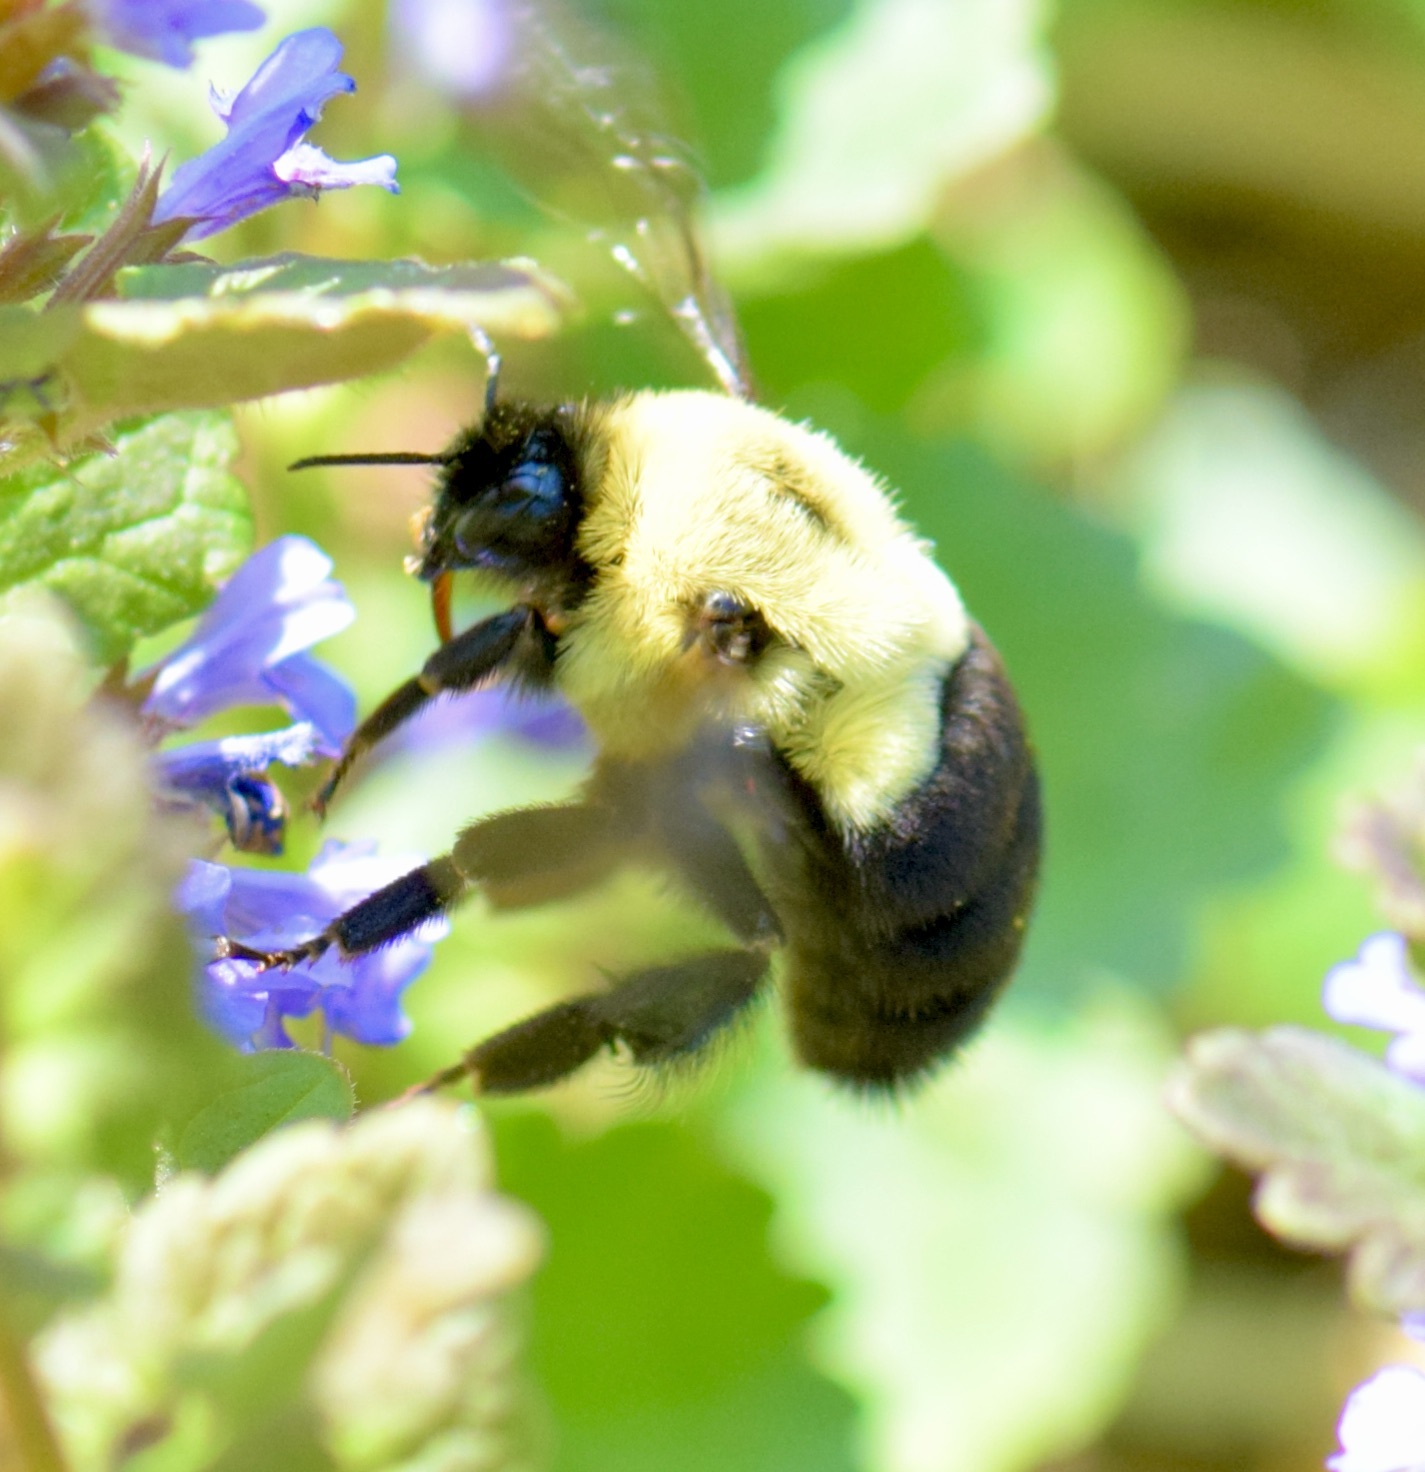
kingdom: Animalia
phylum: Arthropoda
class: Insecta
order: Hymenoptera
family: Apidae
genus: Bombus
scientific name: Bombus impatiens
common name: Common eastern bumble bee
